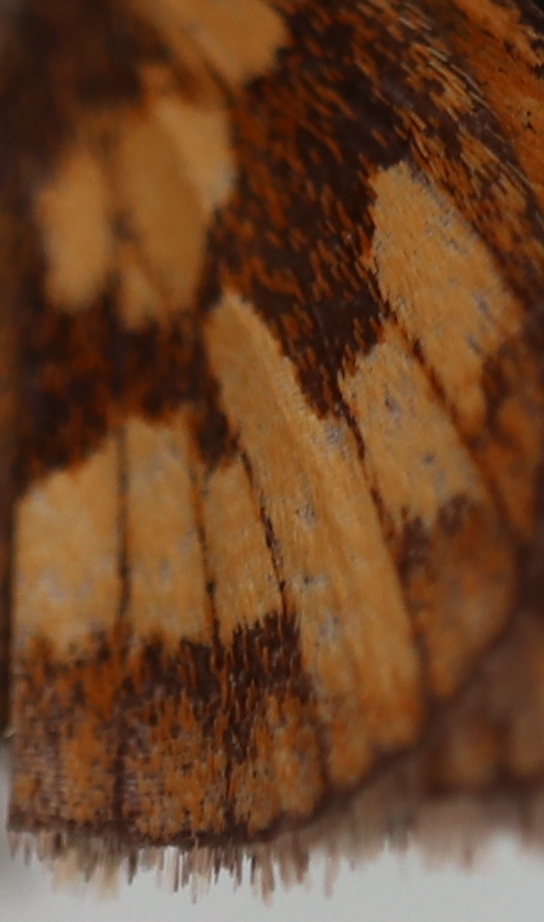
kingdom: Animalia
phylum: Arthropoda
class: Insecta
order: Lepidoptera
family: Hesperiidae
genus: Polites
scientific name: Polites coras
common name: Peck's skipper
